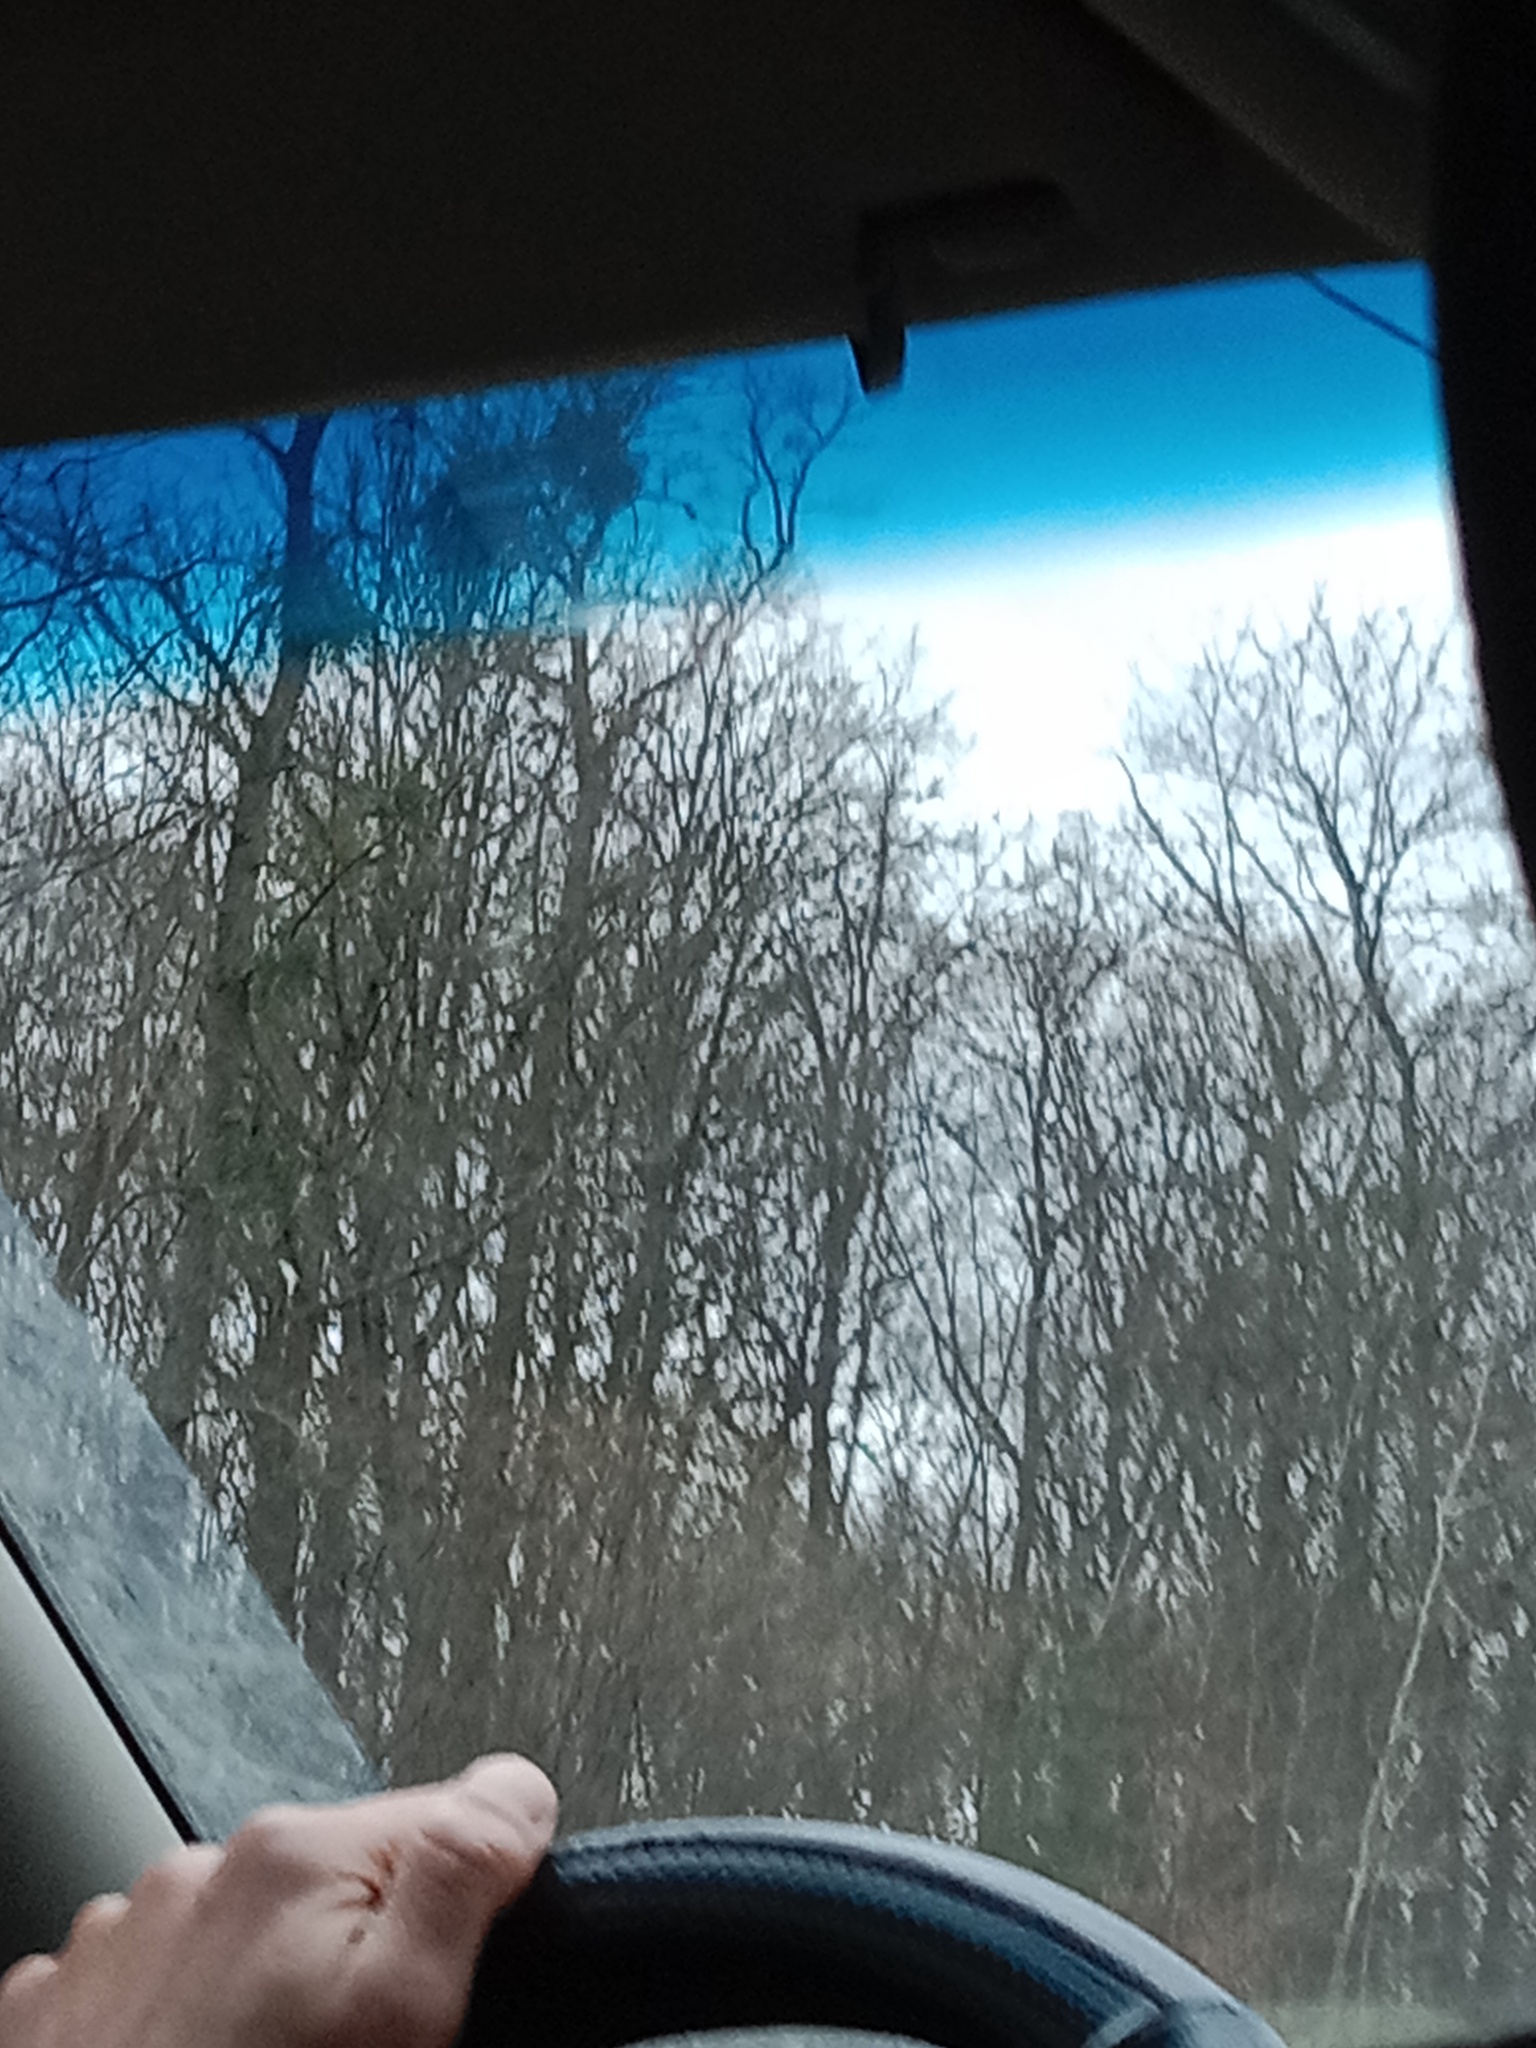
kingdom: Plantae
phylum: Tracheophyta
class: Magnoliopsida
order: Santalales
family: Viscaceae
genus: Viscum
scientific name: Viscum album
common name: Mistletoe
